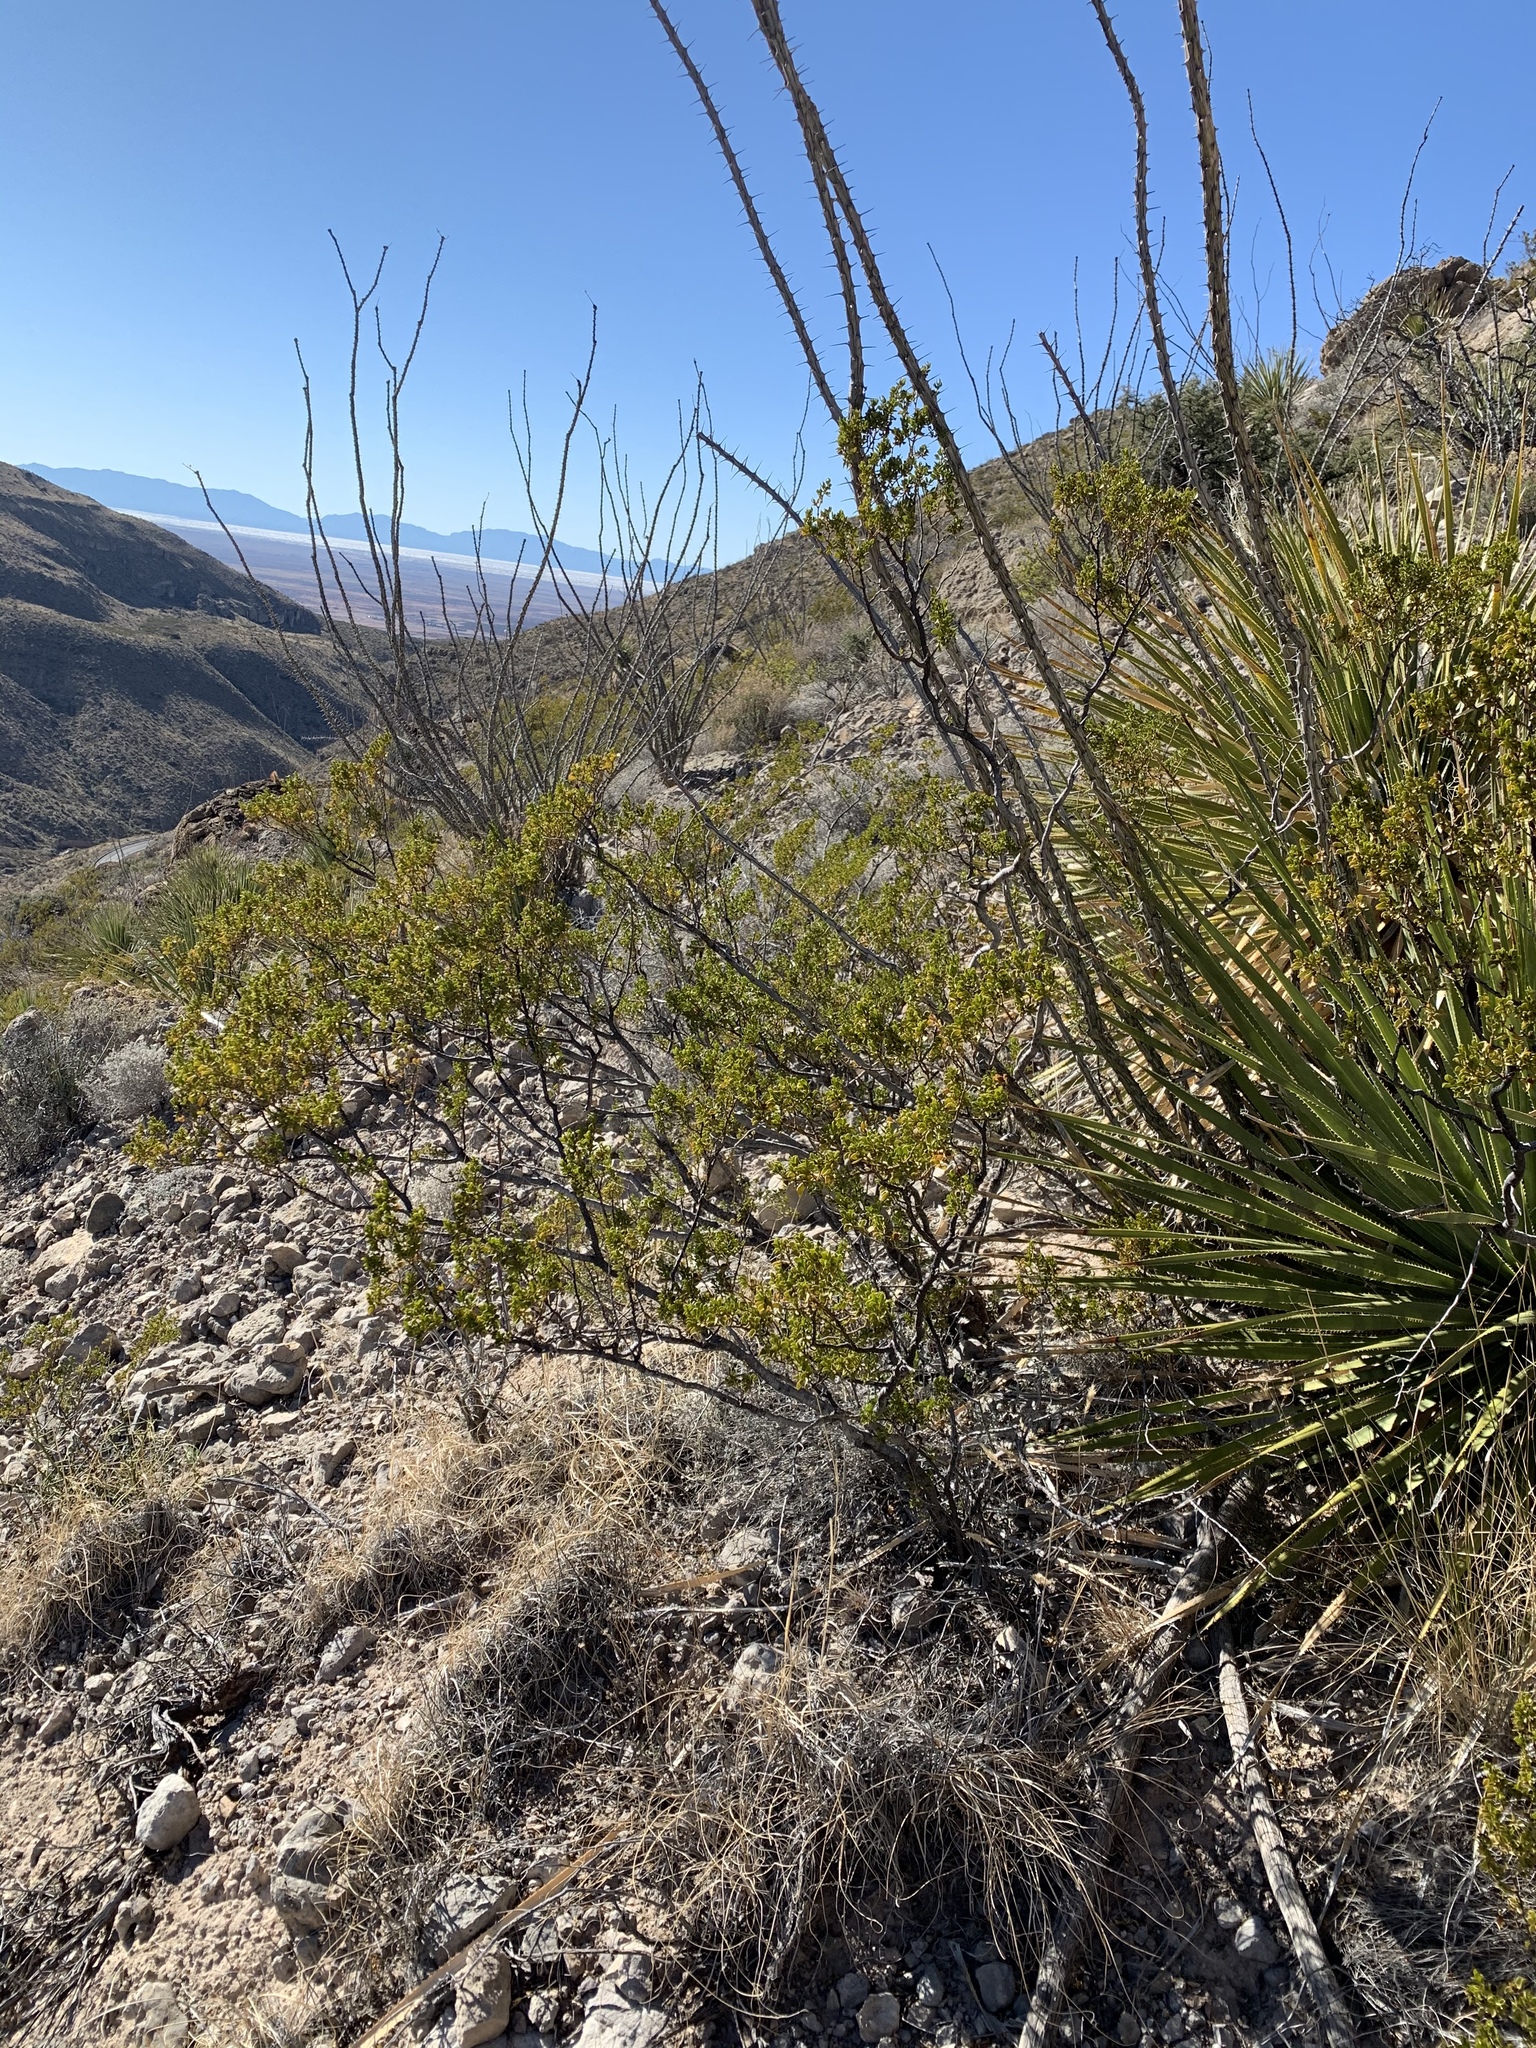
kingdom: Plantae
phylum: Tracheophyta
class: Magnoliopsida
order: Zygophyllales
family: Zygophyllaceae
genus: Larrea
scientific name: Larrea tridentata
